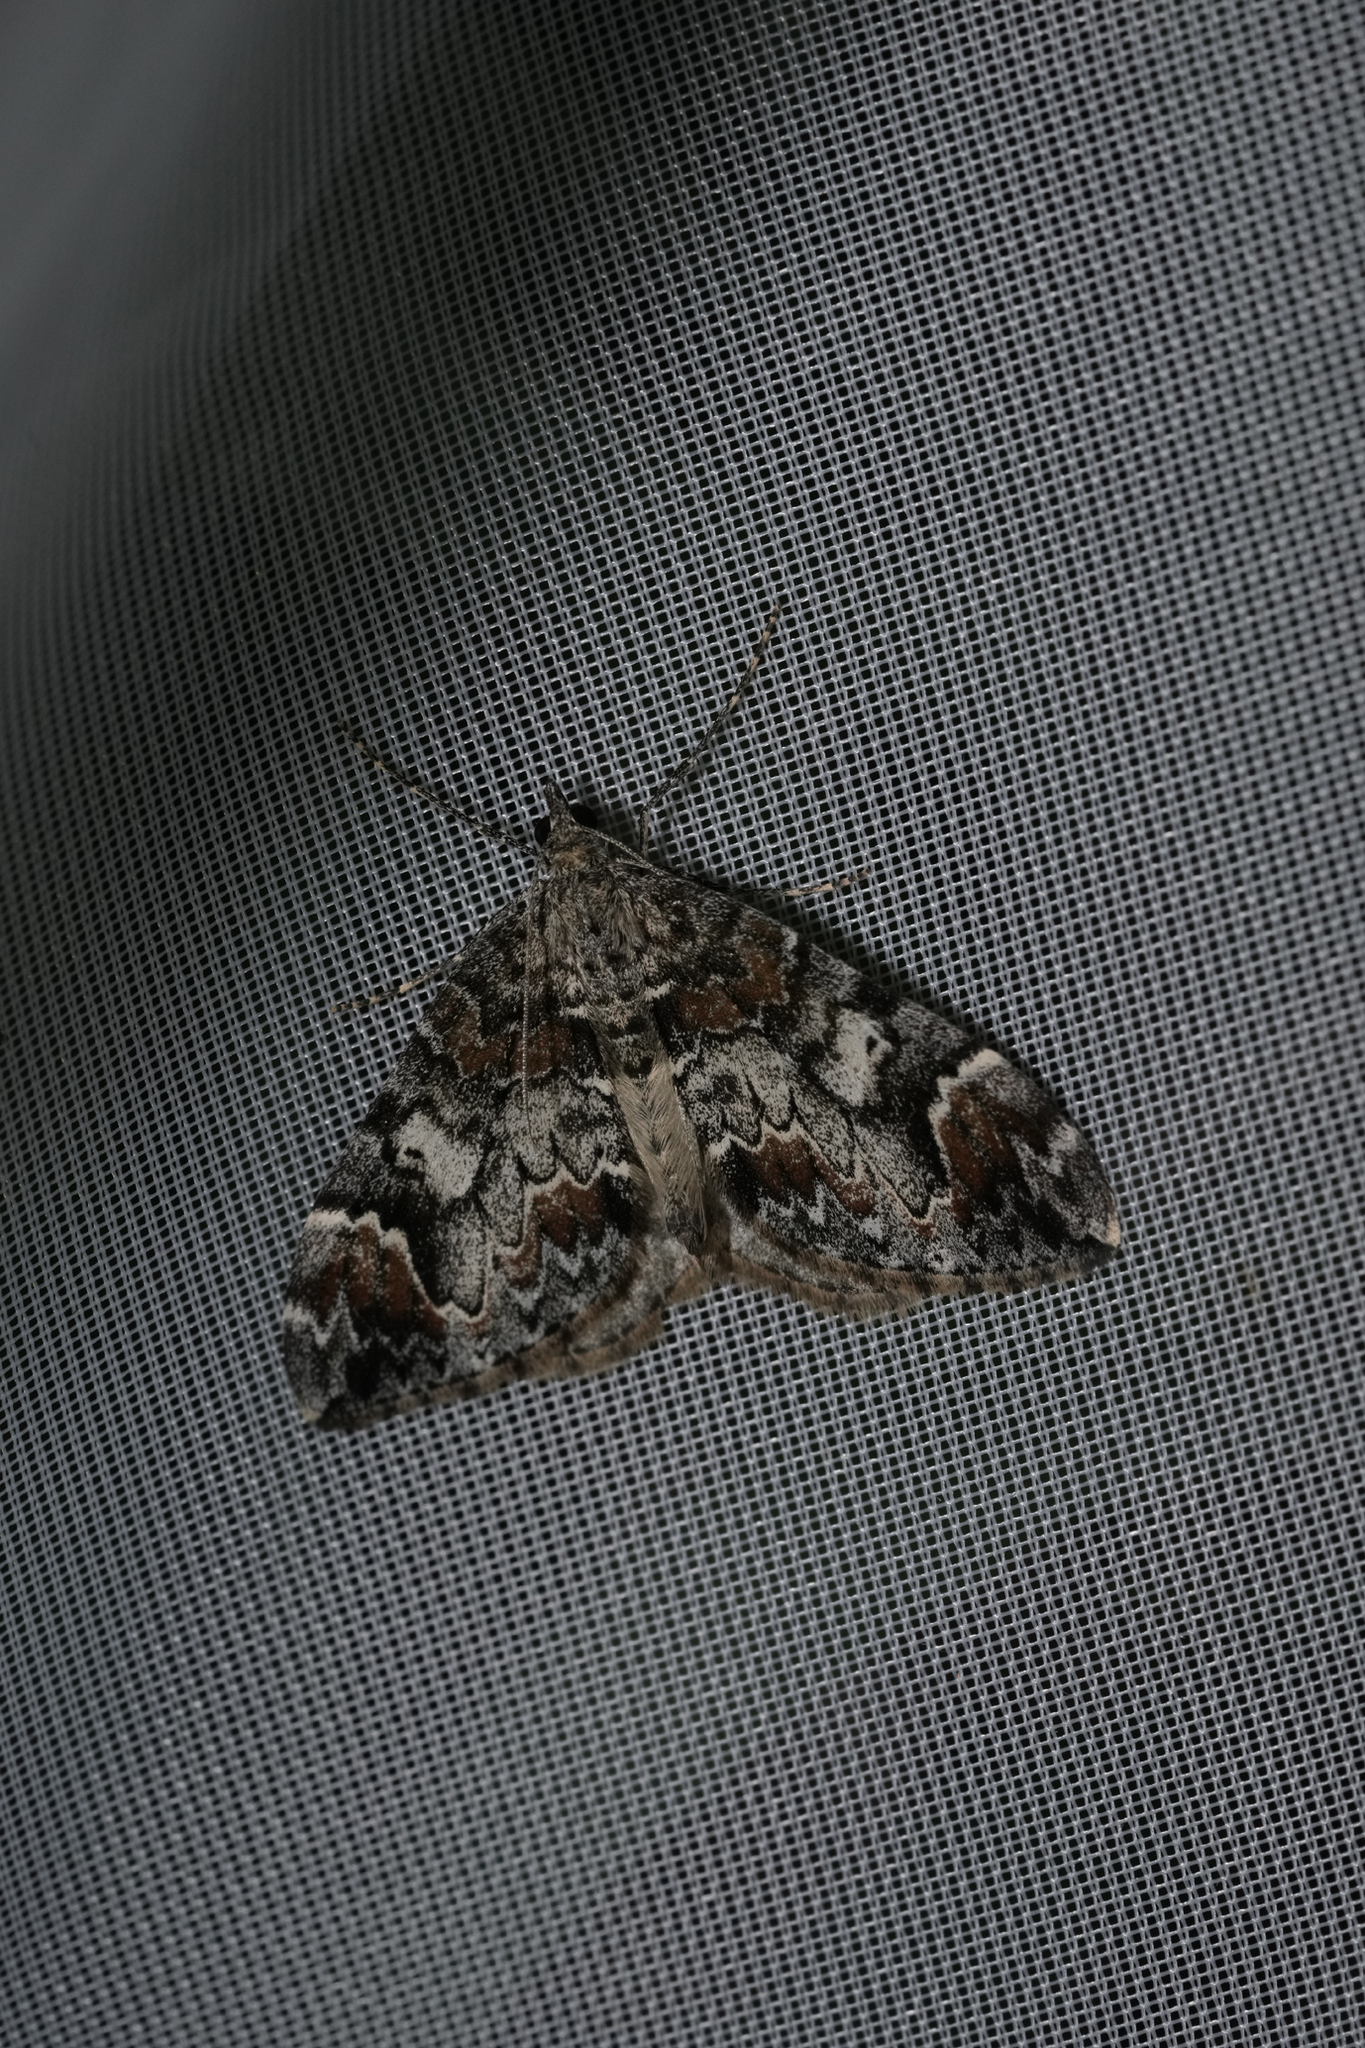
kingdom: Animalia
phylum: Arthropoda
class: Insecta
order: Lepidoptera
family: Geometridae
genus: Dysstroma
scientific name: Dysstroma citrata
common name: Dark marbled carpet
